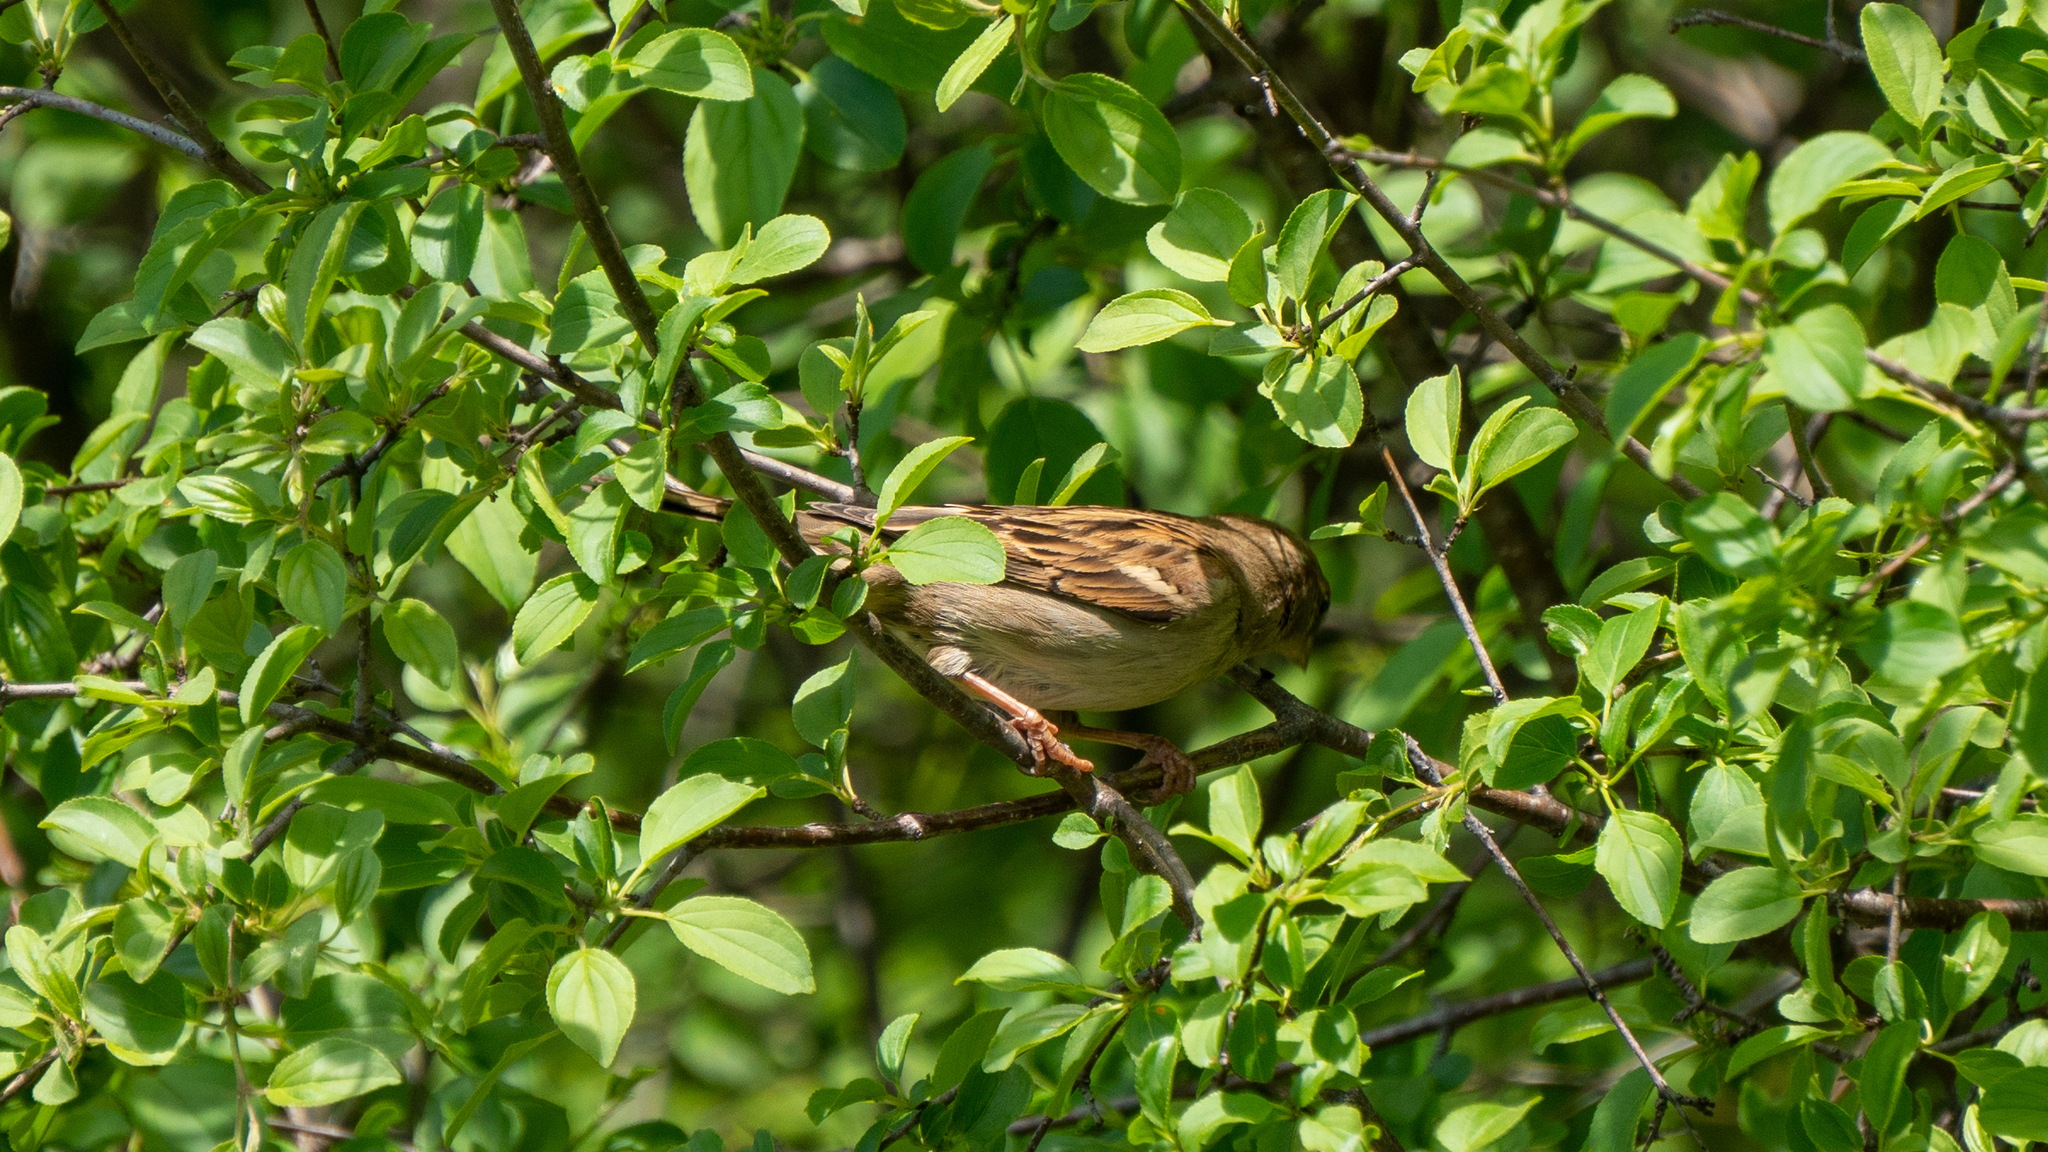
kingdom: Animalia
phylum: Chordata
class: Aves
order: Passeriformes
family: Passeridae
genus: Passer
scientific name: Passer domesticus
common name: House sparrow
